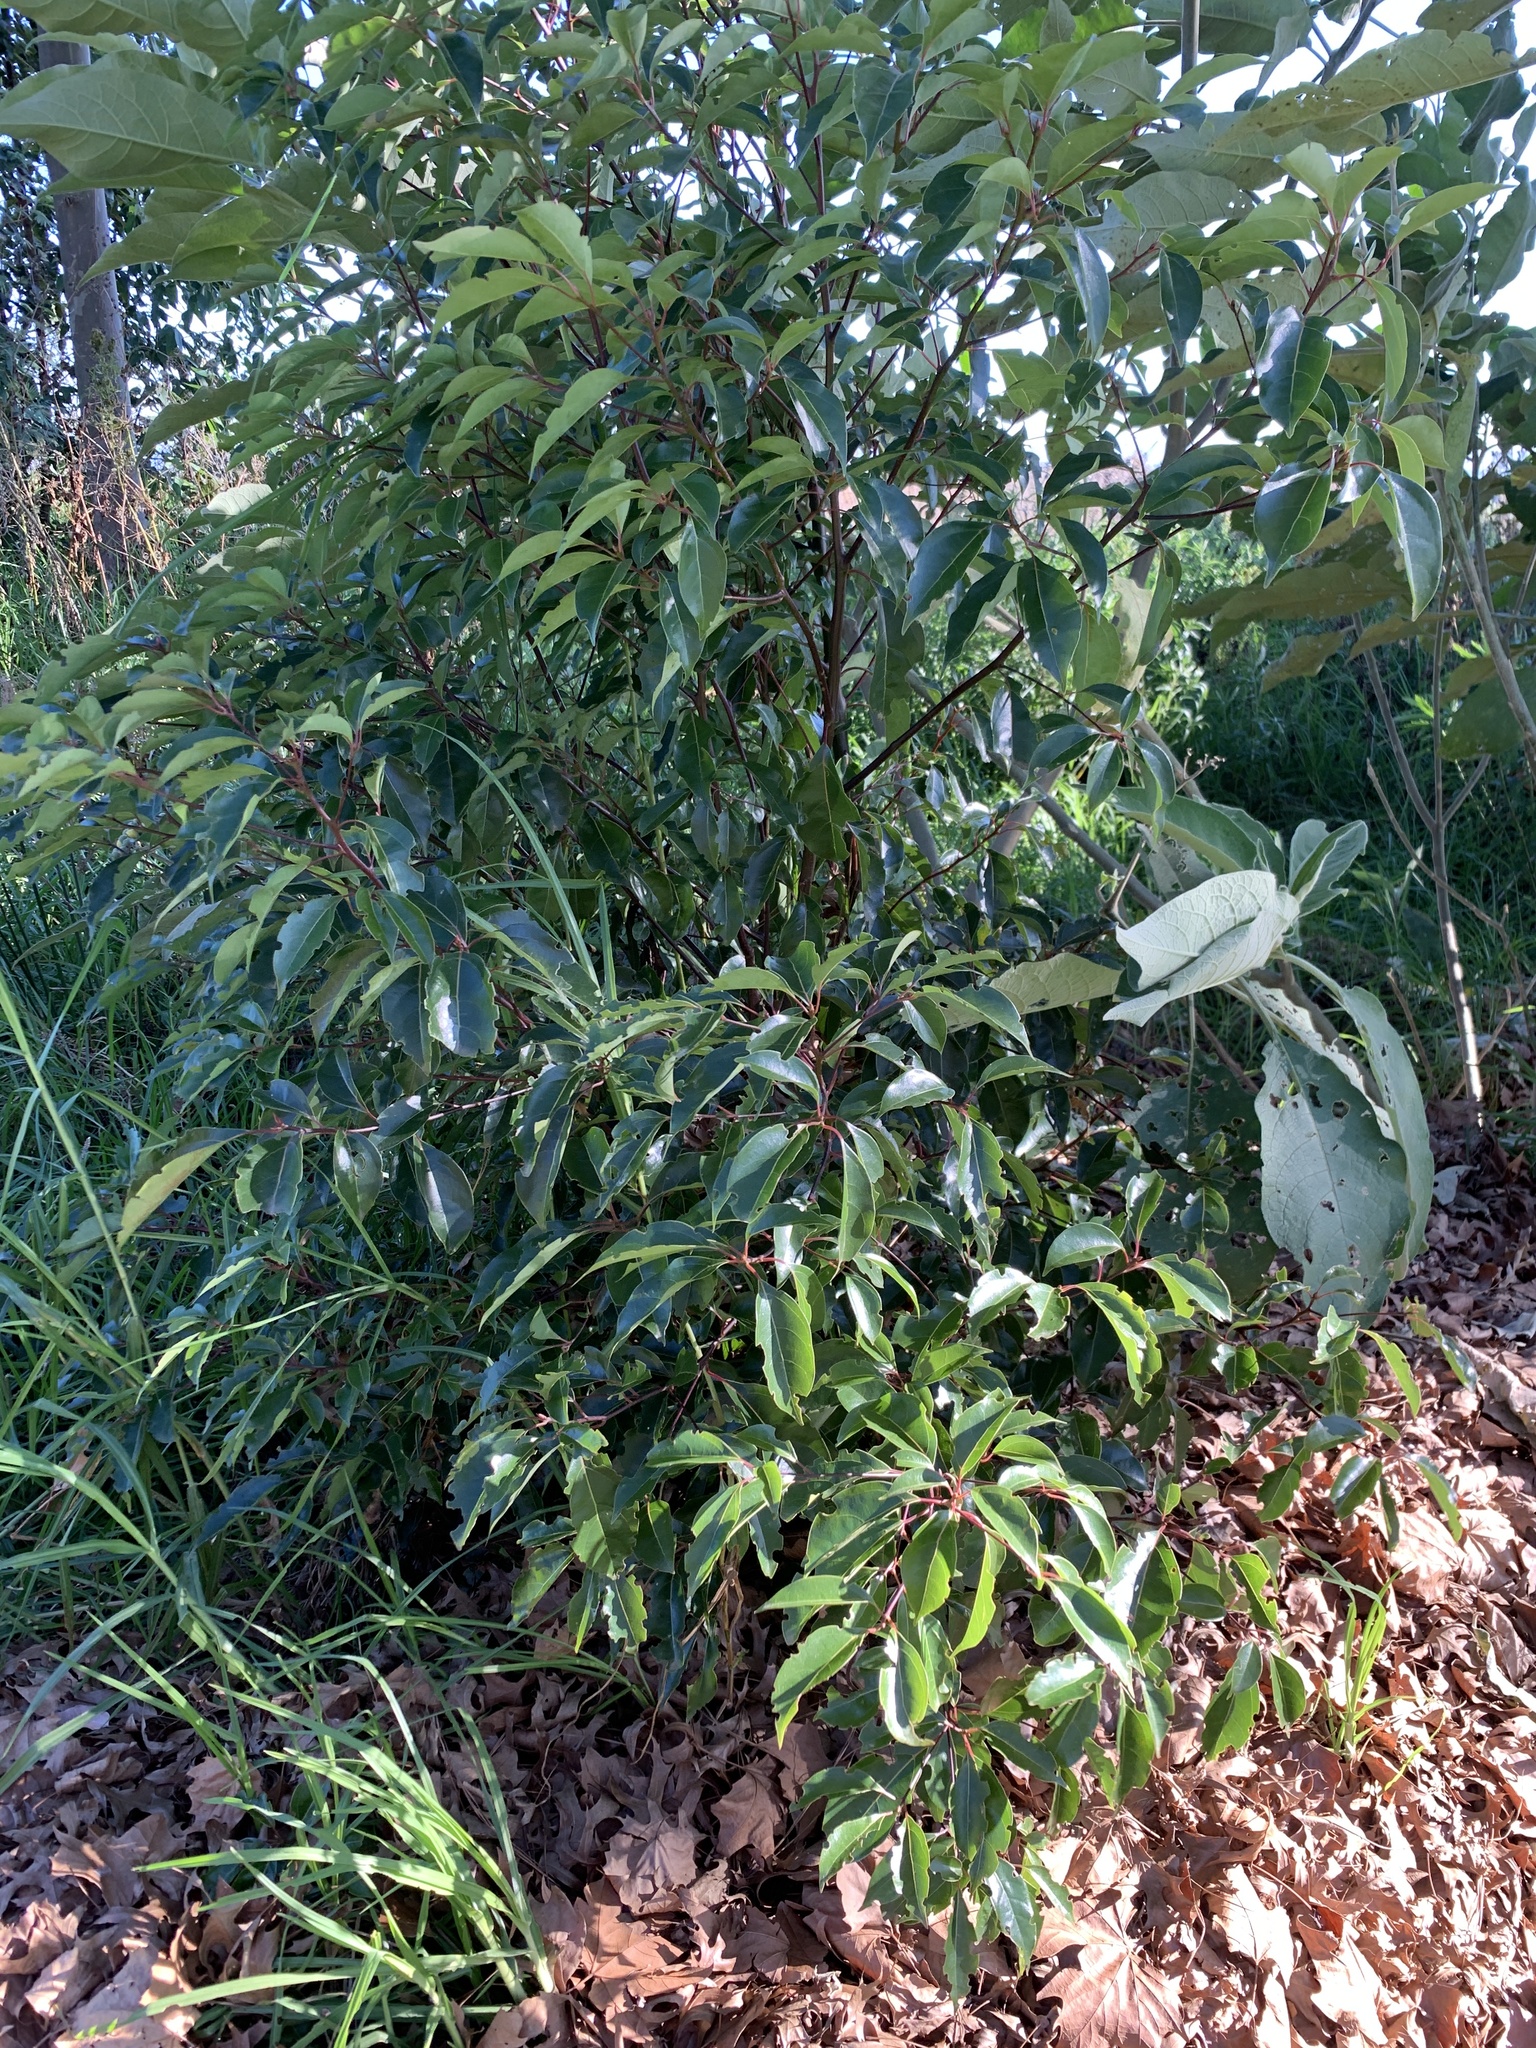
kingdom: Plantae
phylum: Tracheophyta
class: Magnoliopsida
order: Laurales
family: Lauraceae
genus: Cinnamomum
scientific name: Cinnamomum camphora
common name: Camphortree
